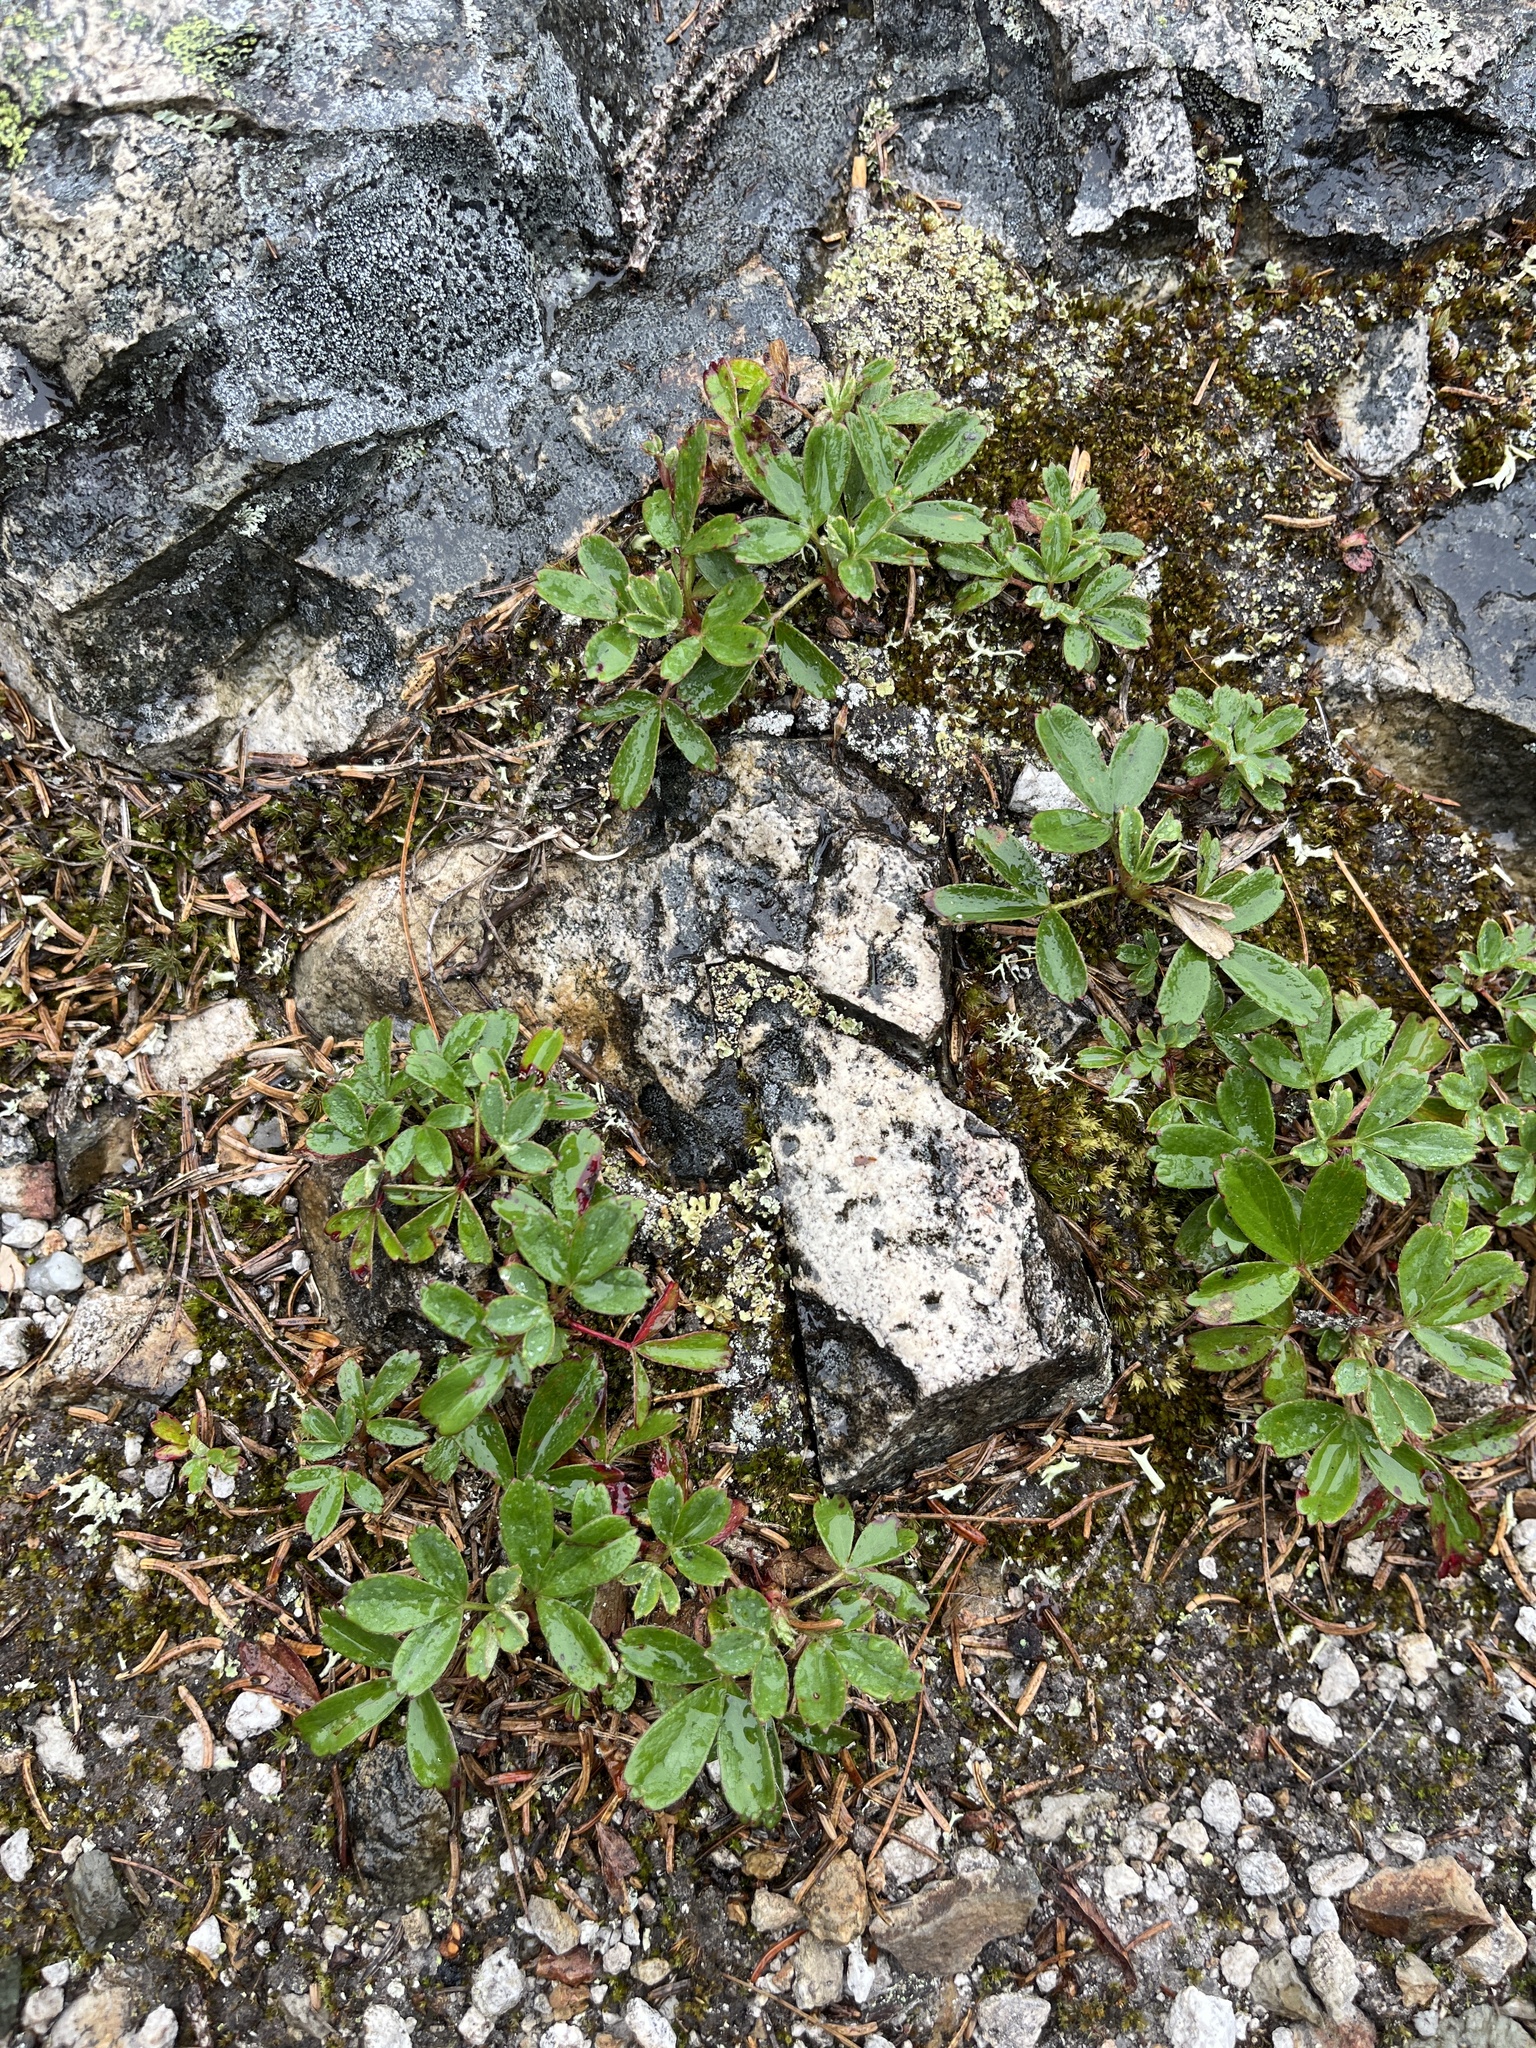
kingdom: Plantae
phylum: Tracheophyta
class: Magnoliopsida
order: Rosales
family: Rosaceae
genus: Sibbaldia
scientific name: Sibbaldia tridentata
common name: Three-toothed cinquefoil
